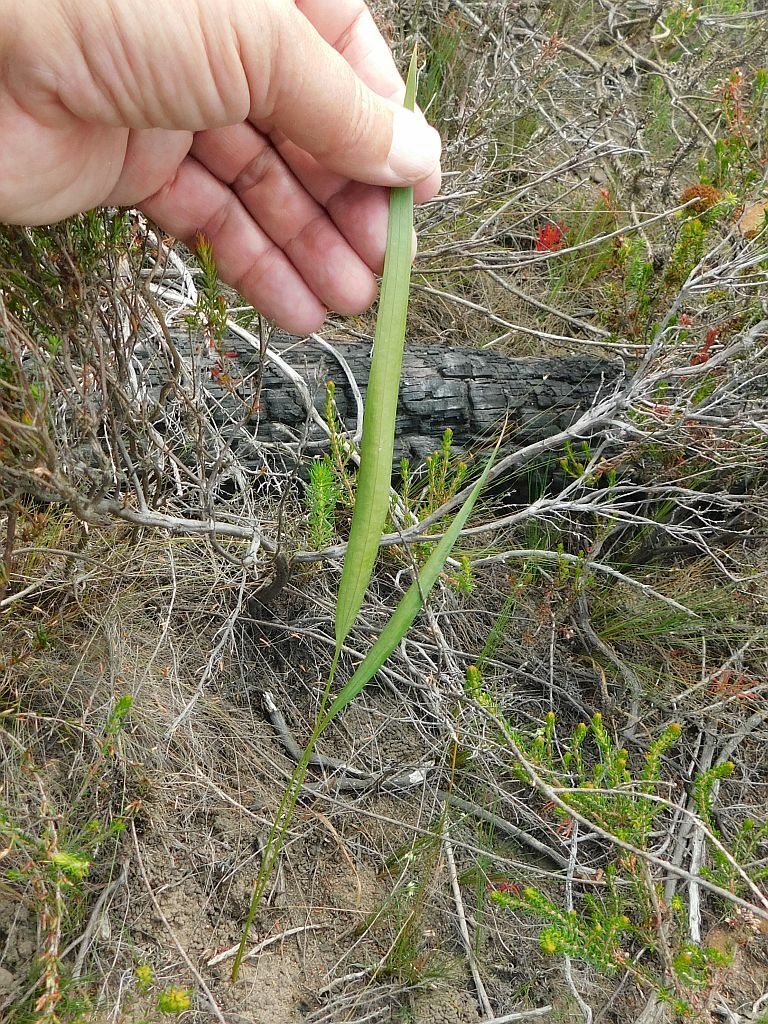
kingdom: Plantae
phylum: Tracheophyta
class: Liliopsida
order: Asparagales
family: Iridaceae
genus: Tritoniopsis
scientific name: Tritoniopsis triticea
